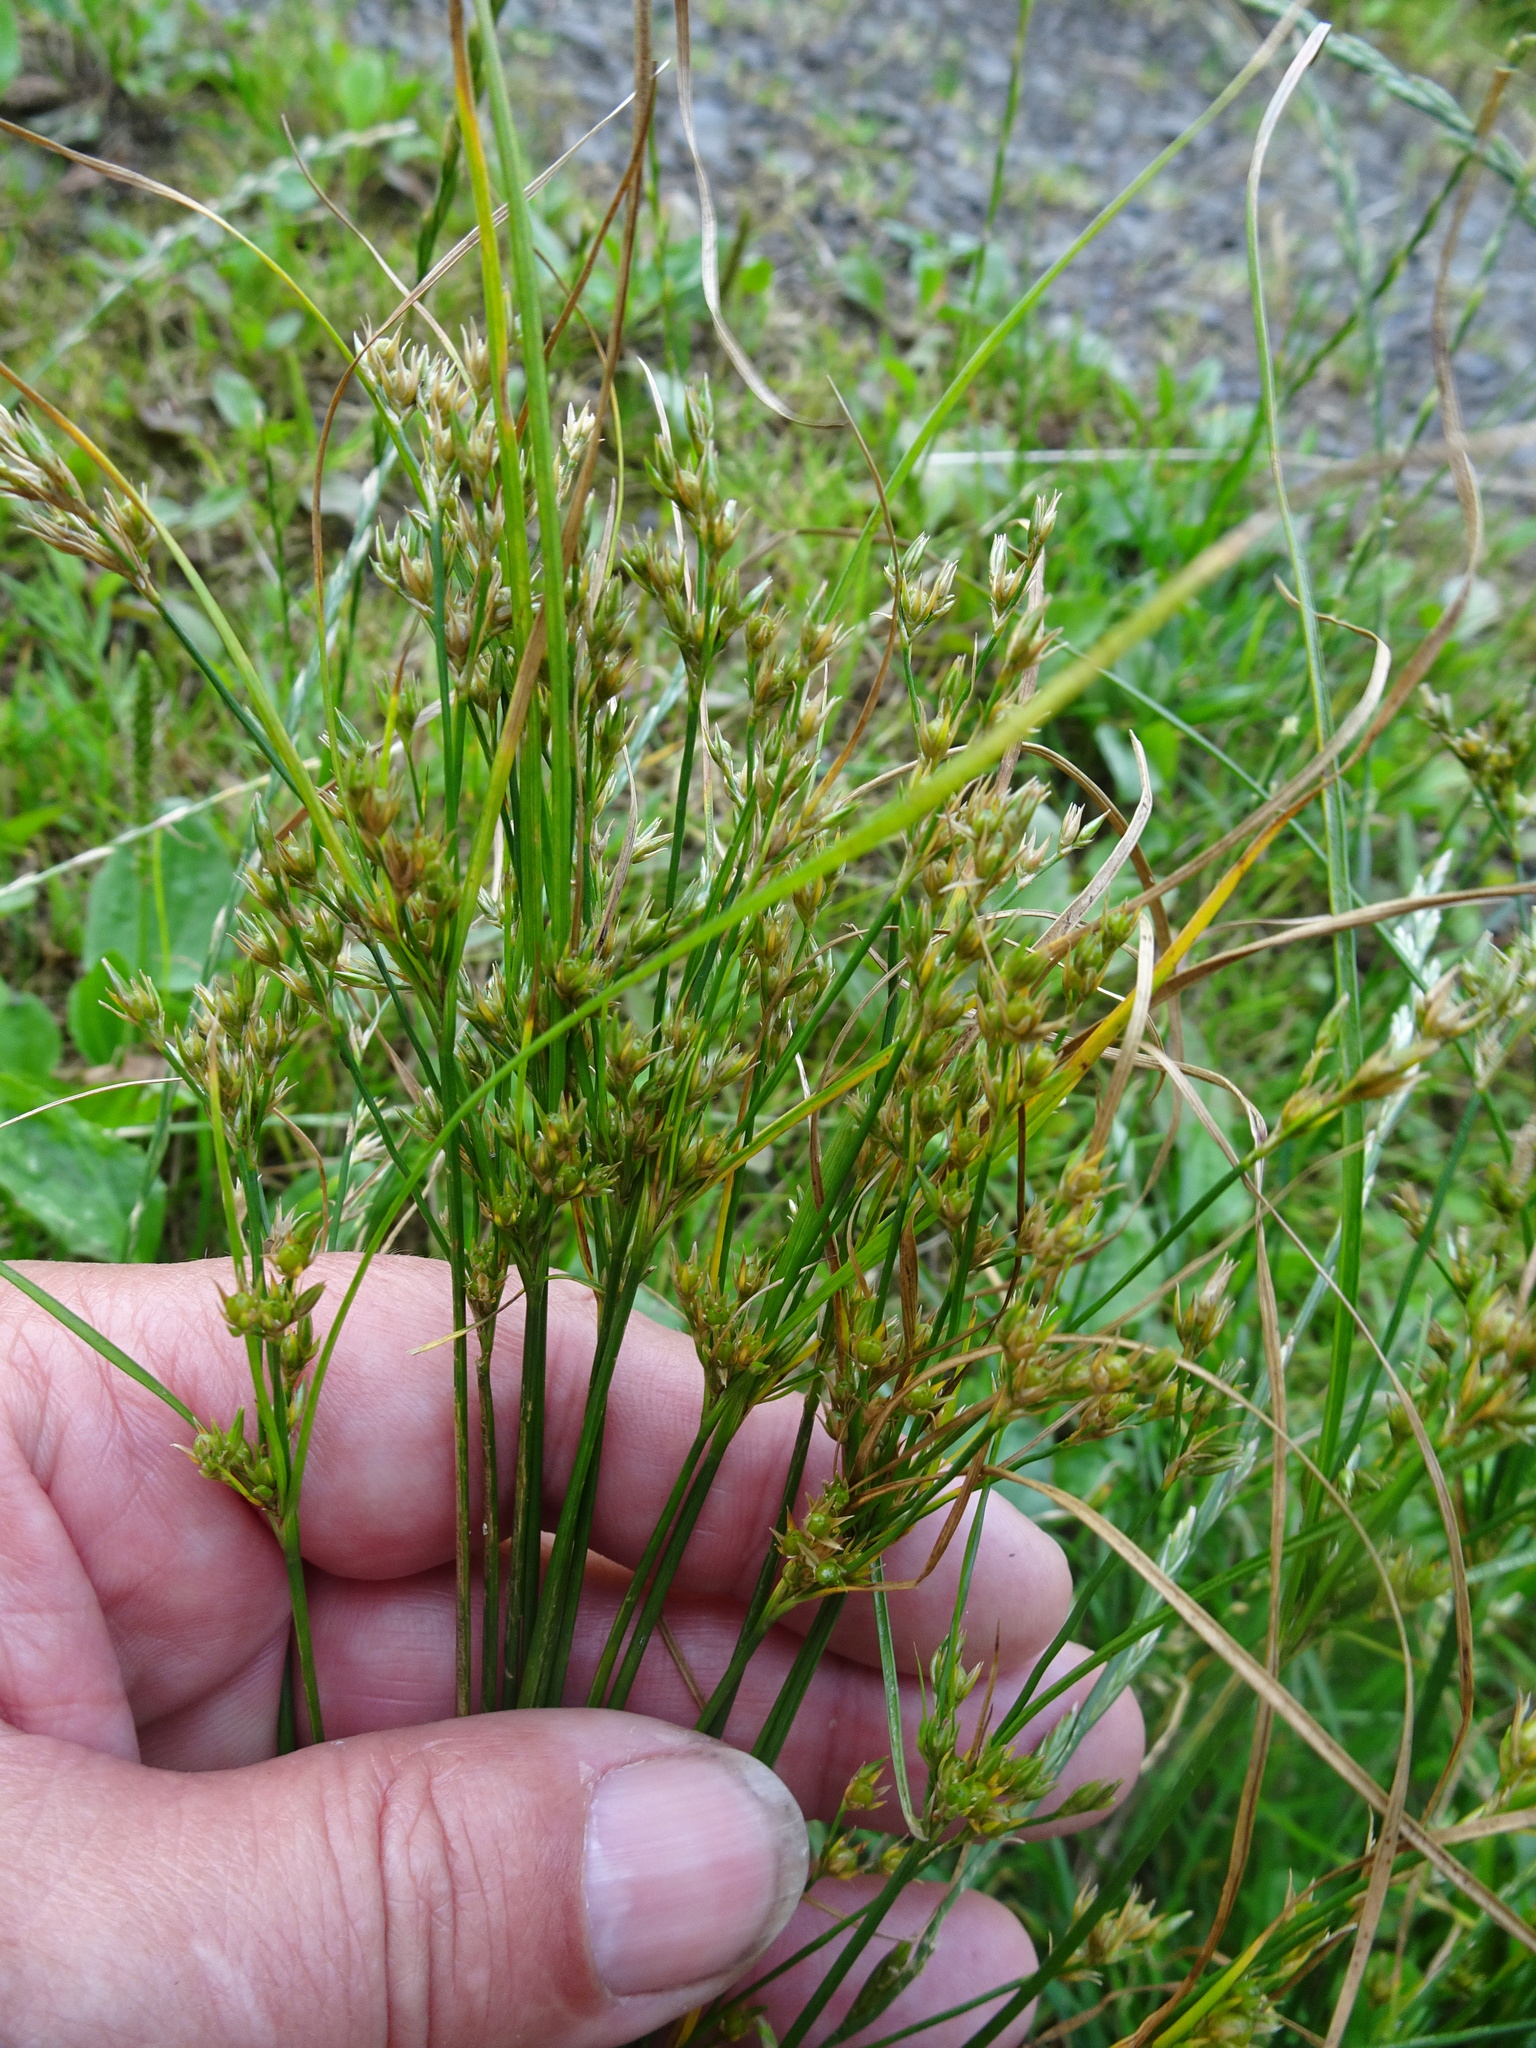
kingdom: Plantae
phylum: Tracheophyta
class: Liliopsida
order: Poales
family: Juncaceae
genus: Juncus
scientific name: Juncus tenuis
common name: Slender rush
